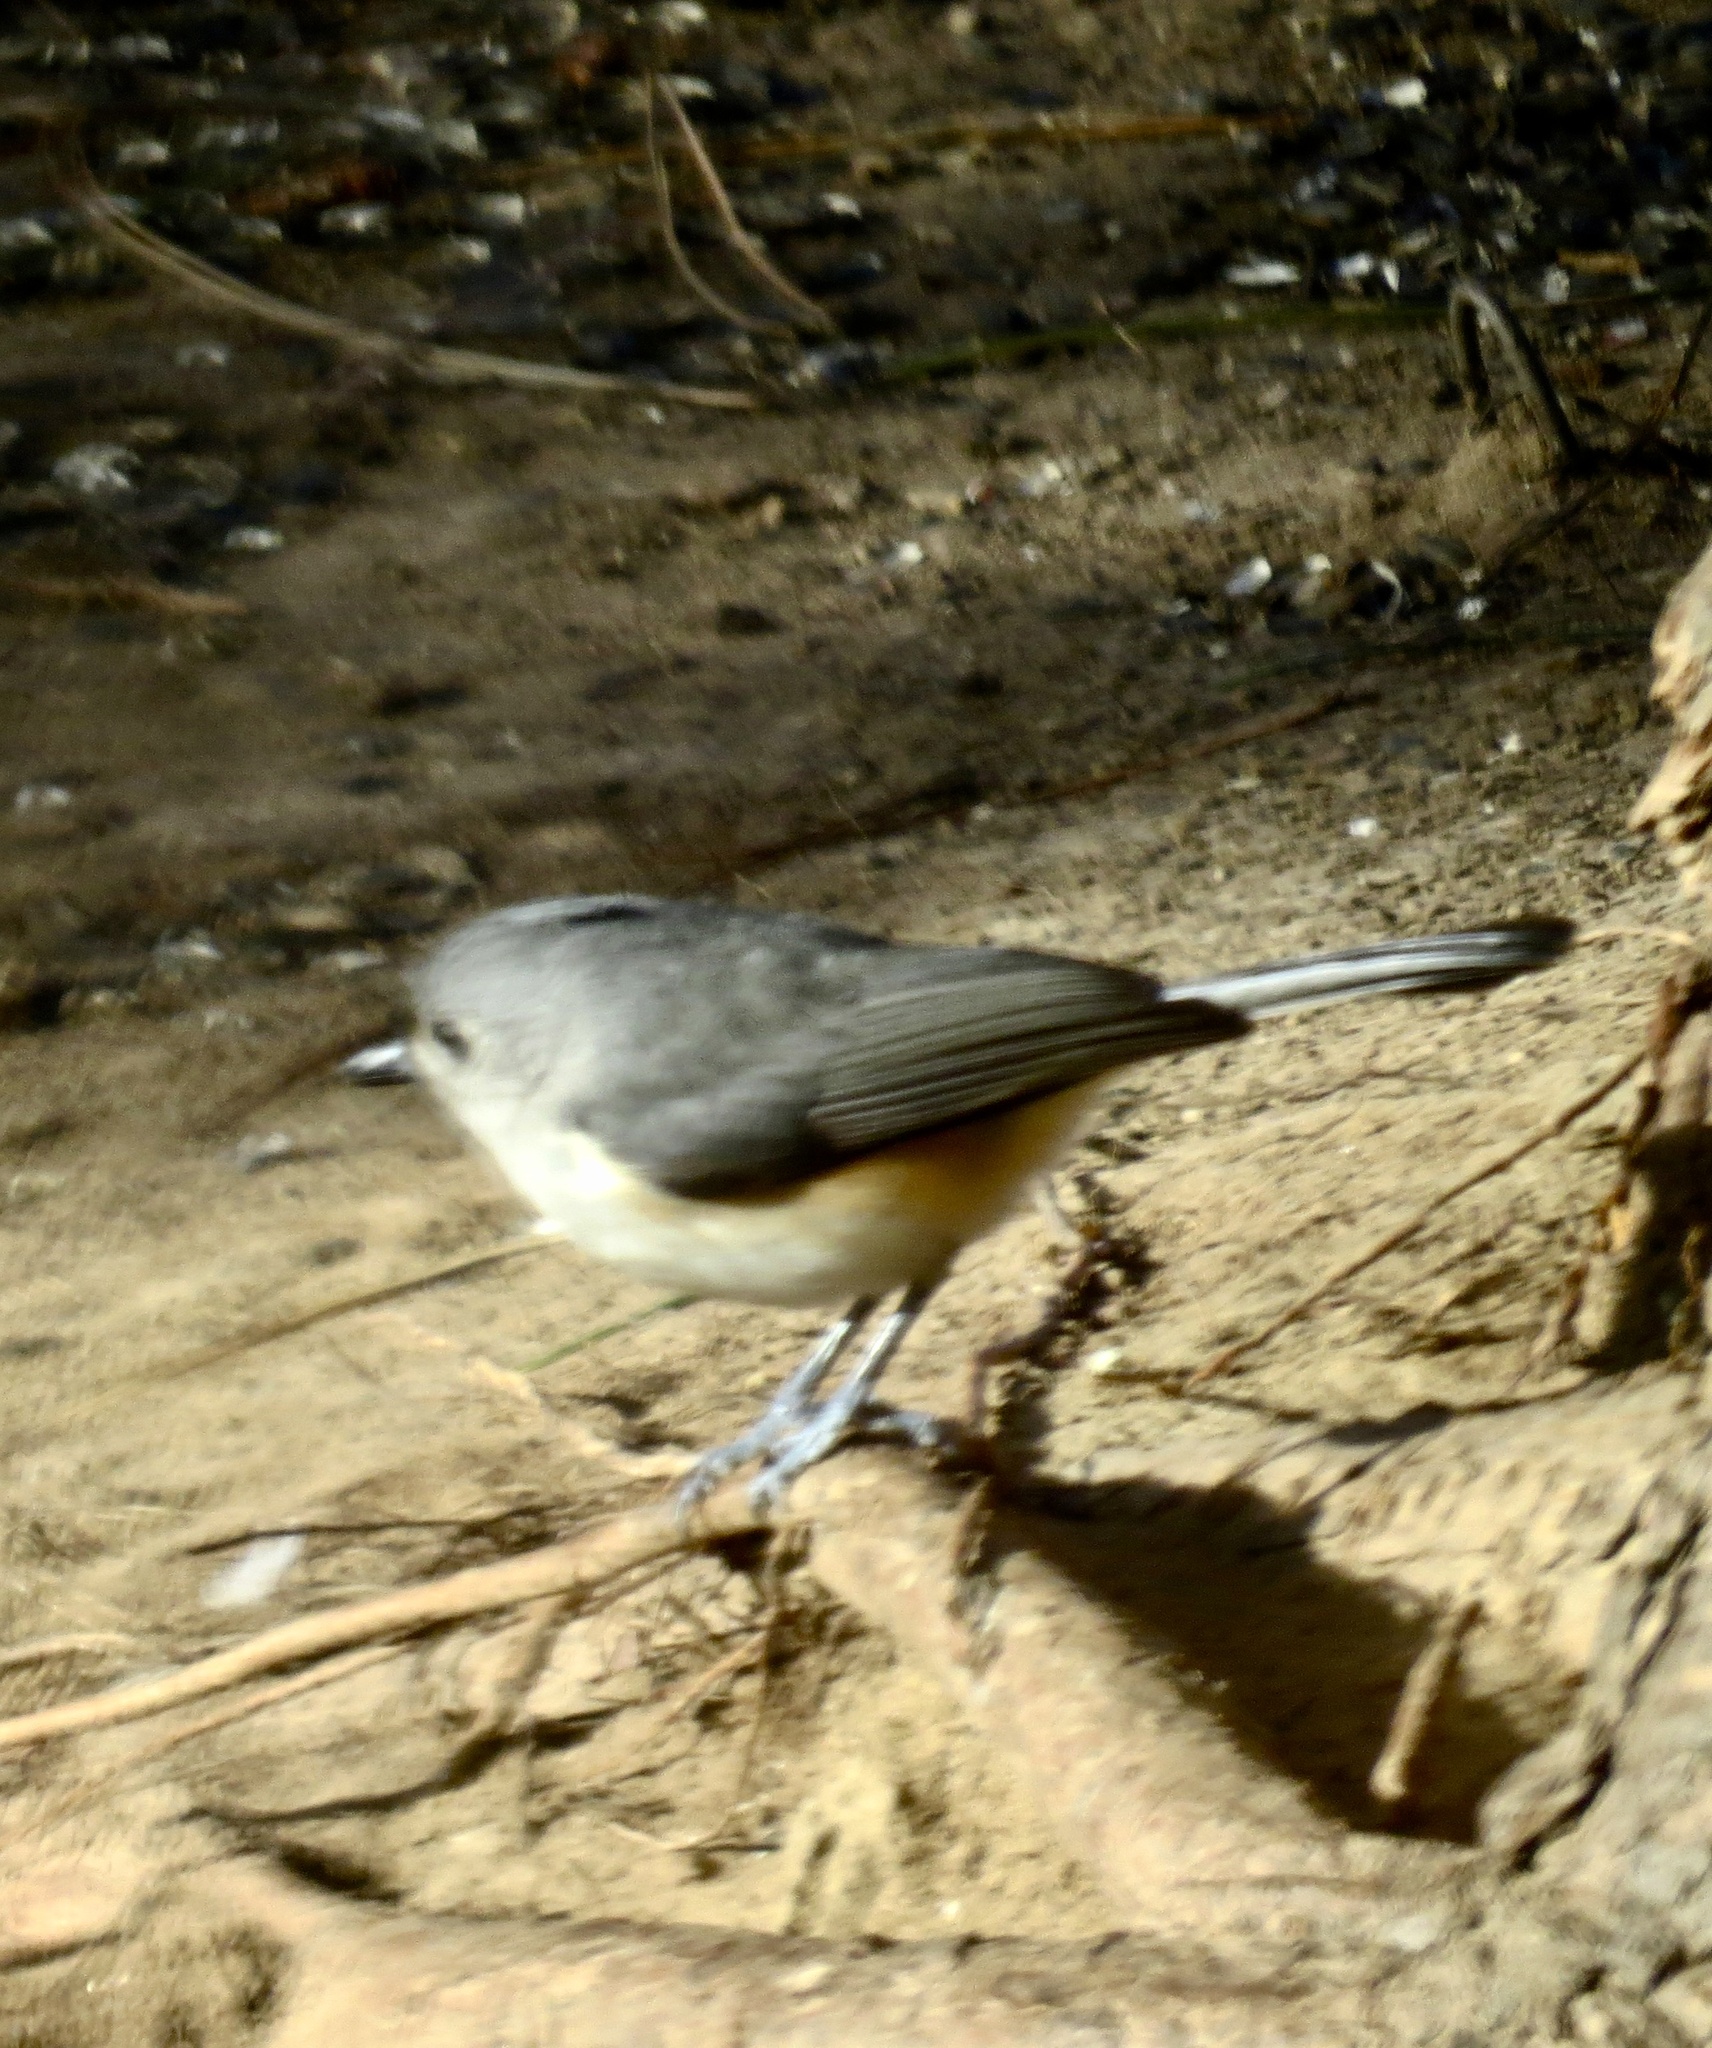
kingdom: Animalia
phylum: Chordata
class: Aves
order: Passeriformes
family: Paridae
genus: Baeolophus
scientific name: Baeolophus bicolor
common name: Tufted titmouse
